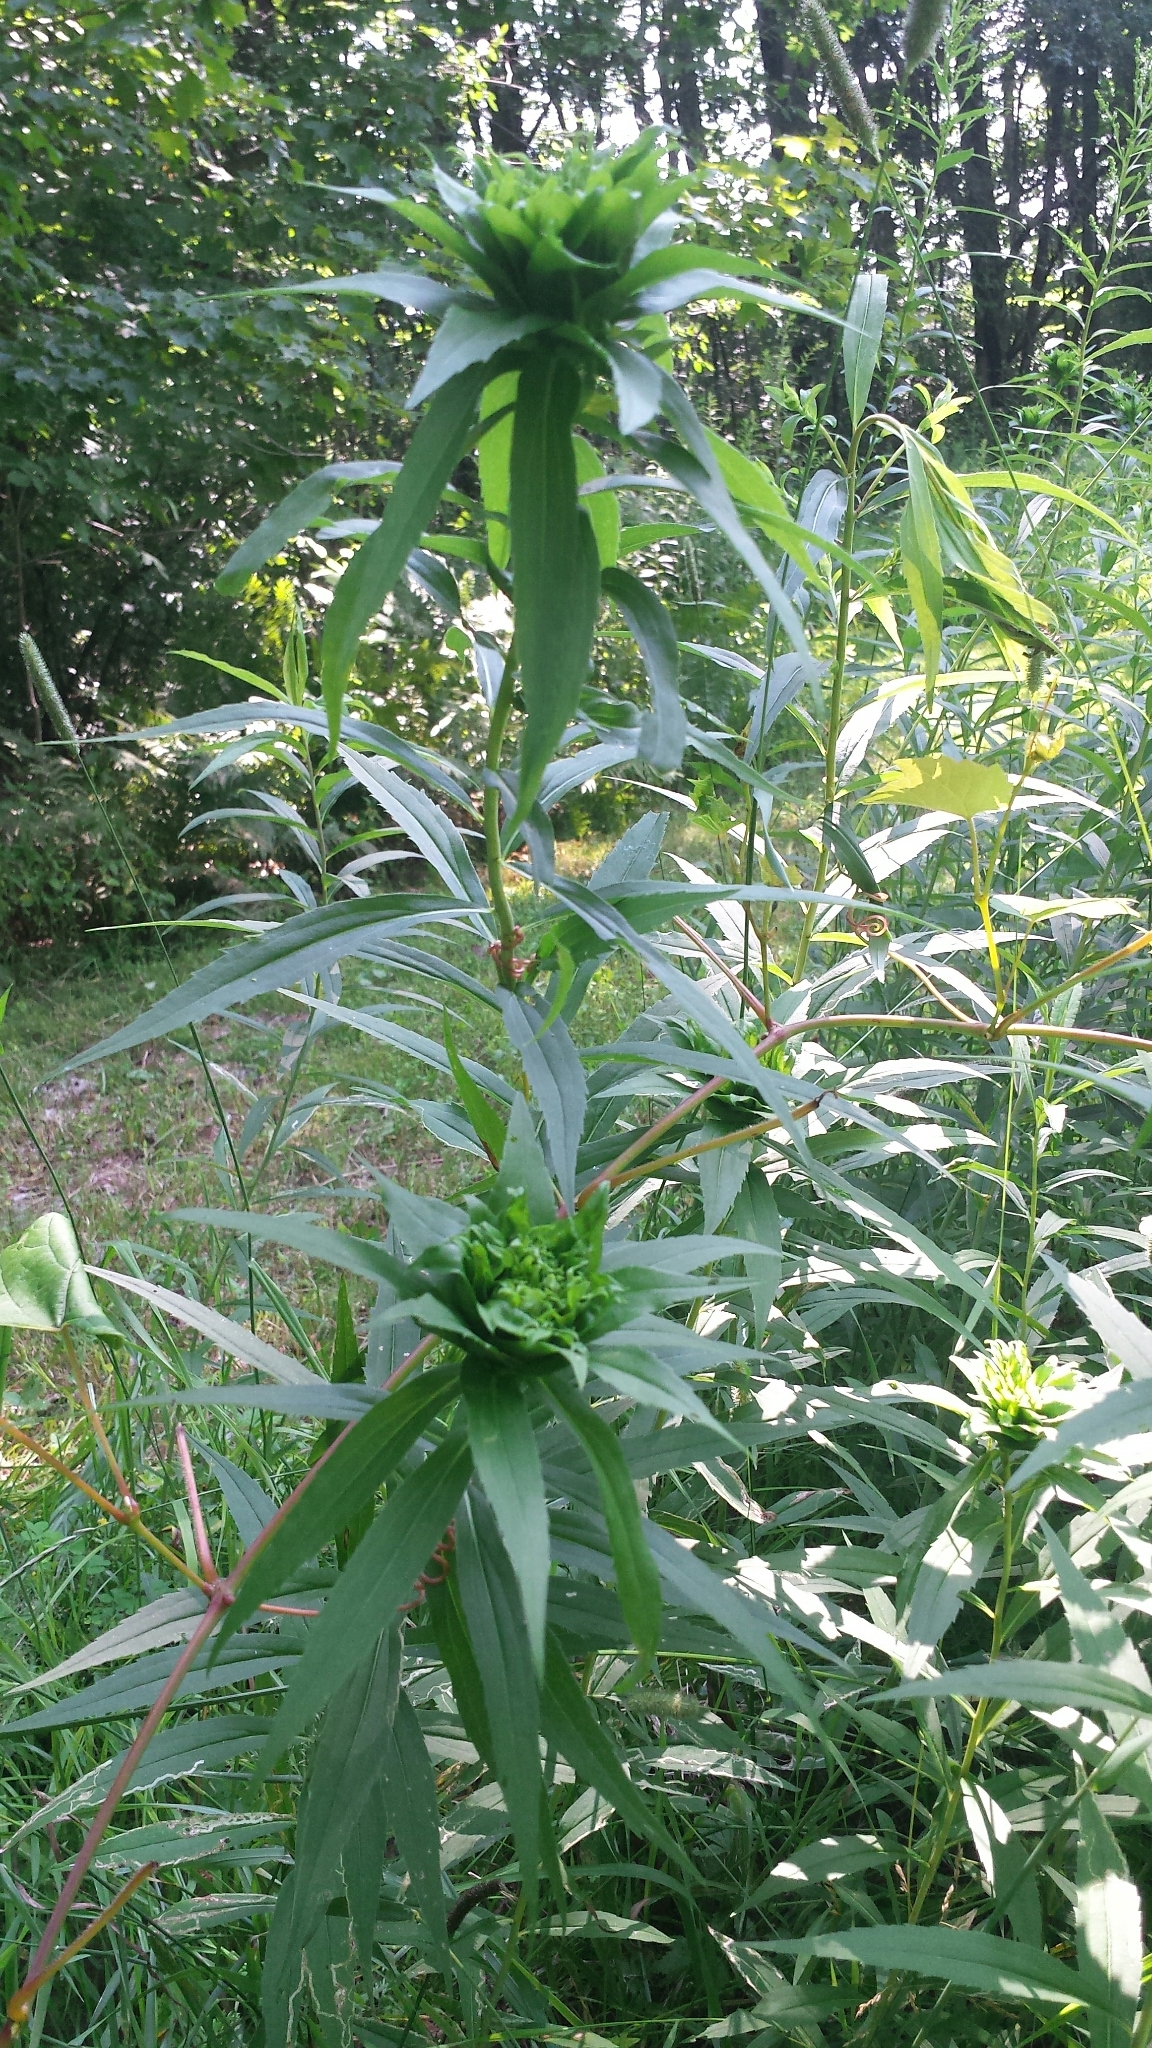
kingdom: Animalia
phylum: Arthropoda
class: Insecta
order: Diptera
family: Cecidomyiidae
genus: Rhopalomyia
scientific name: Rhopalomyia capitata
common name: Giant goldenrod bunch gall midge
